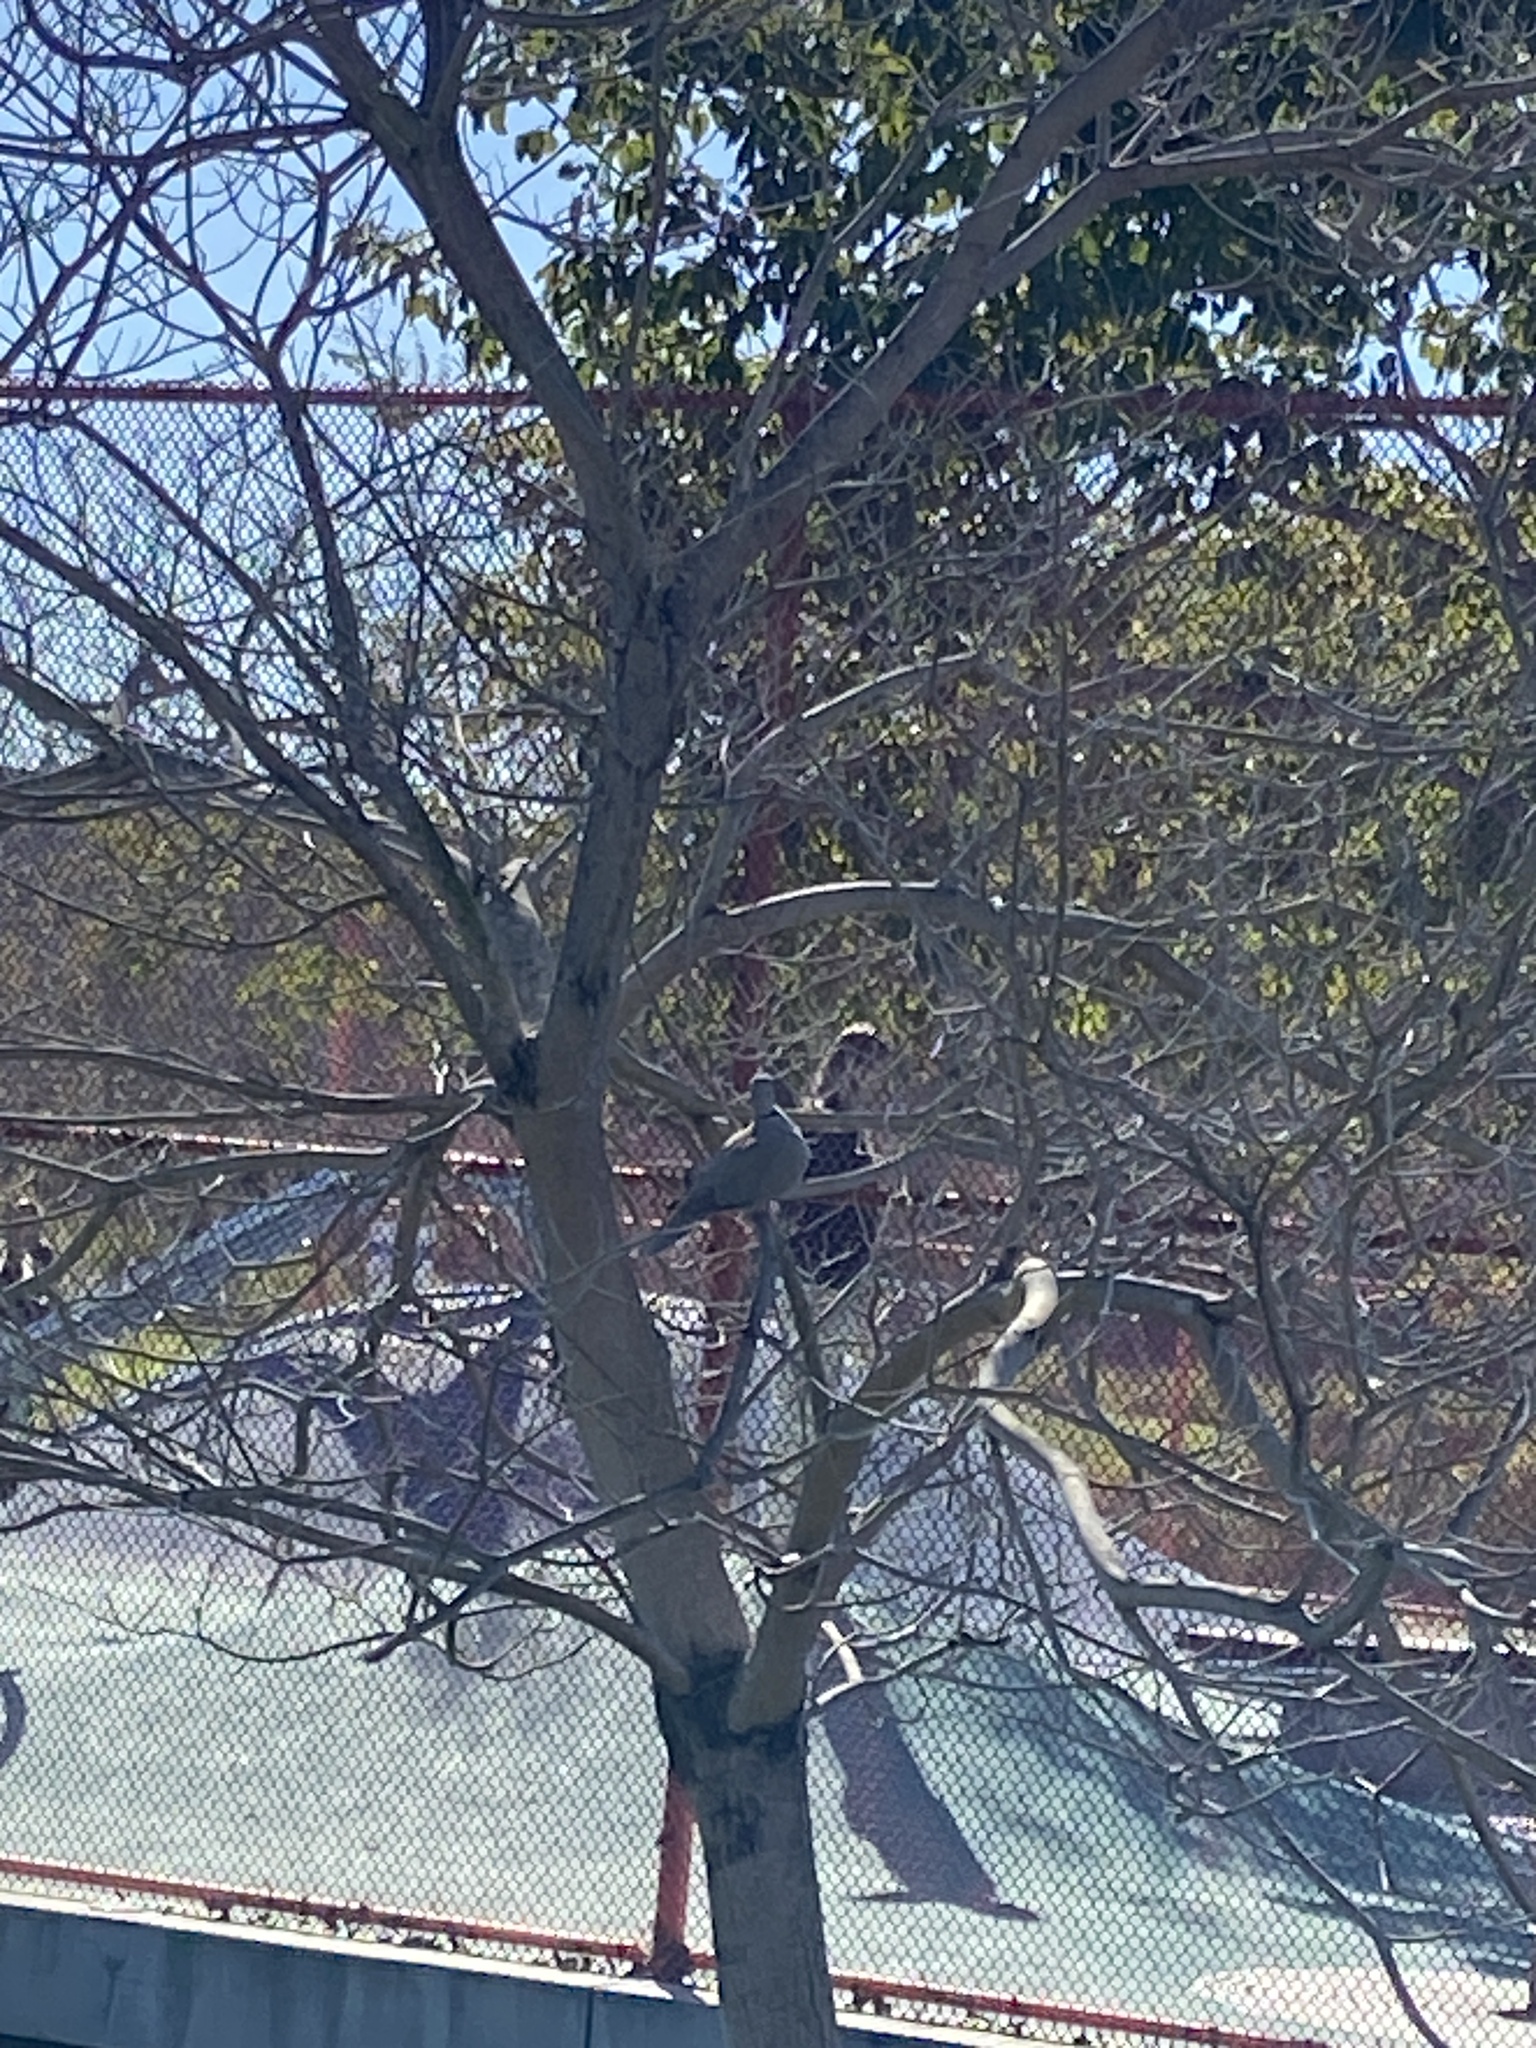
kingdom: Animalia
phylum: Chordata
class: Aves
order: Columbiformes
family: Columbidae
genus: Streptopelia
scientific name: Streptopelia decaocto
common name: Eurasian collared dove
